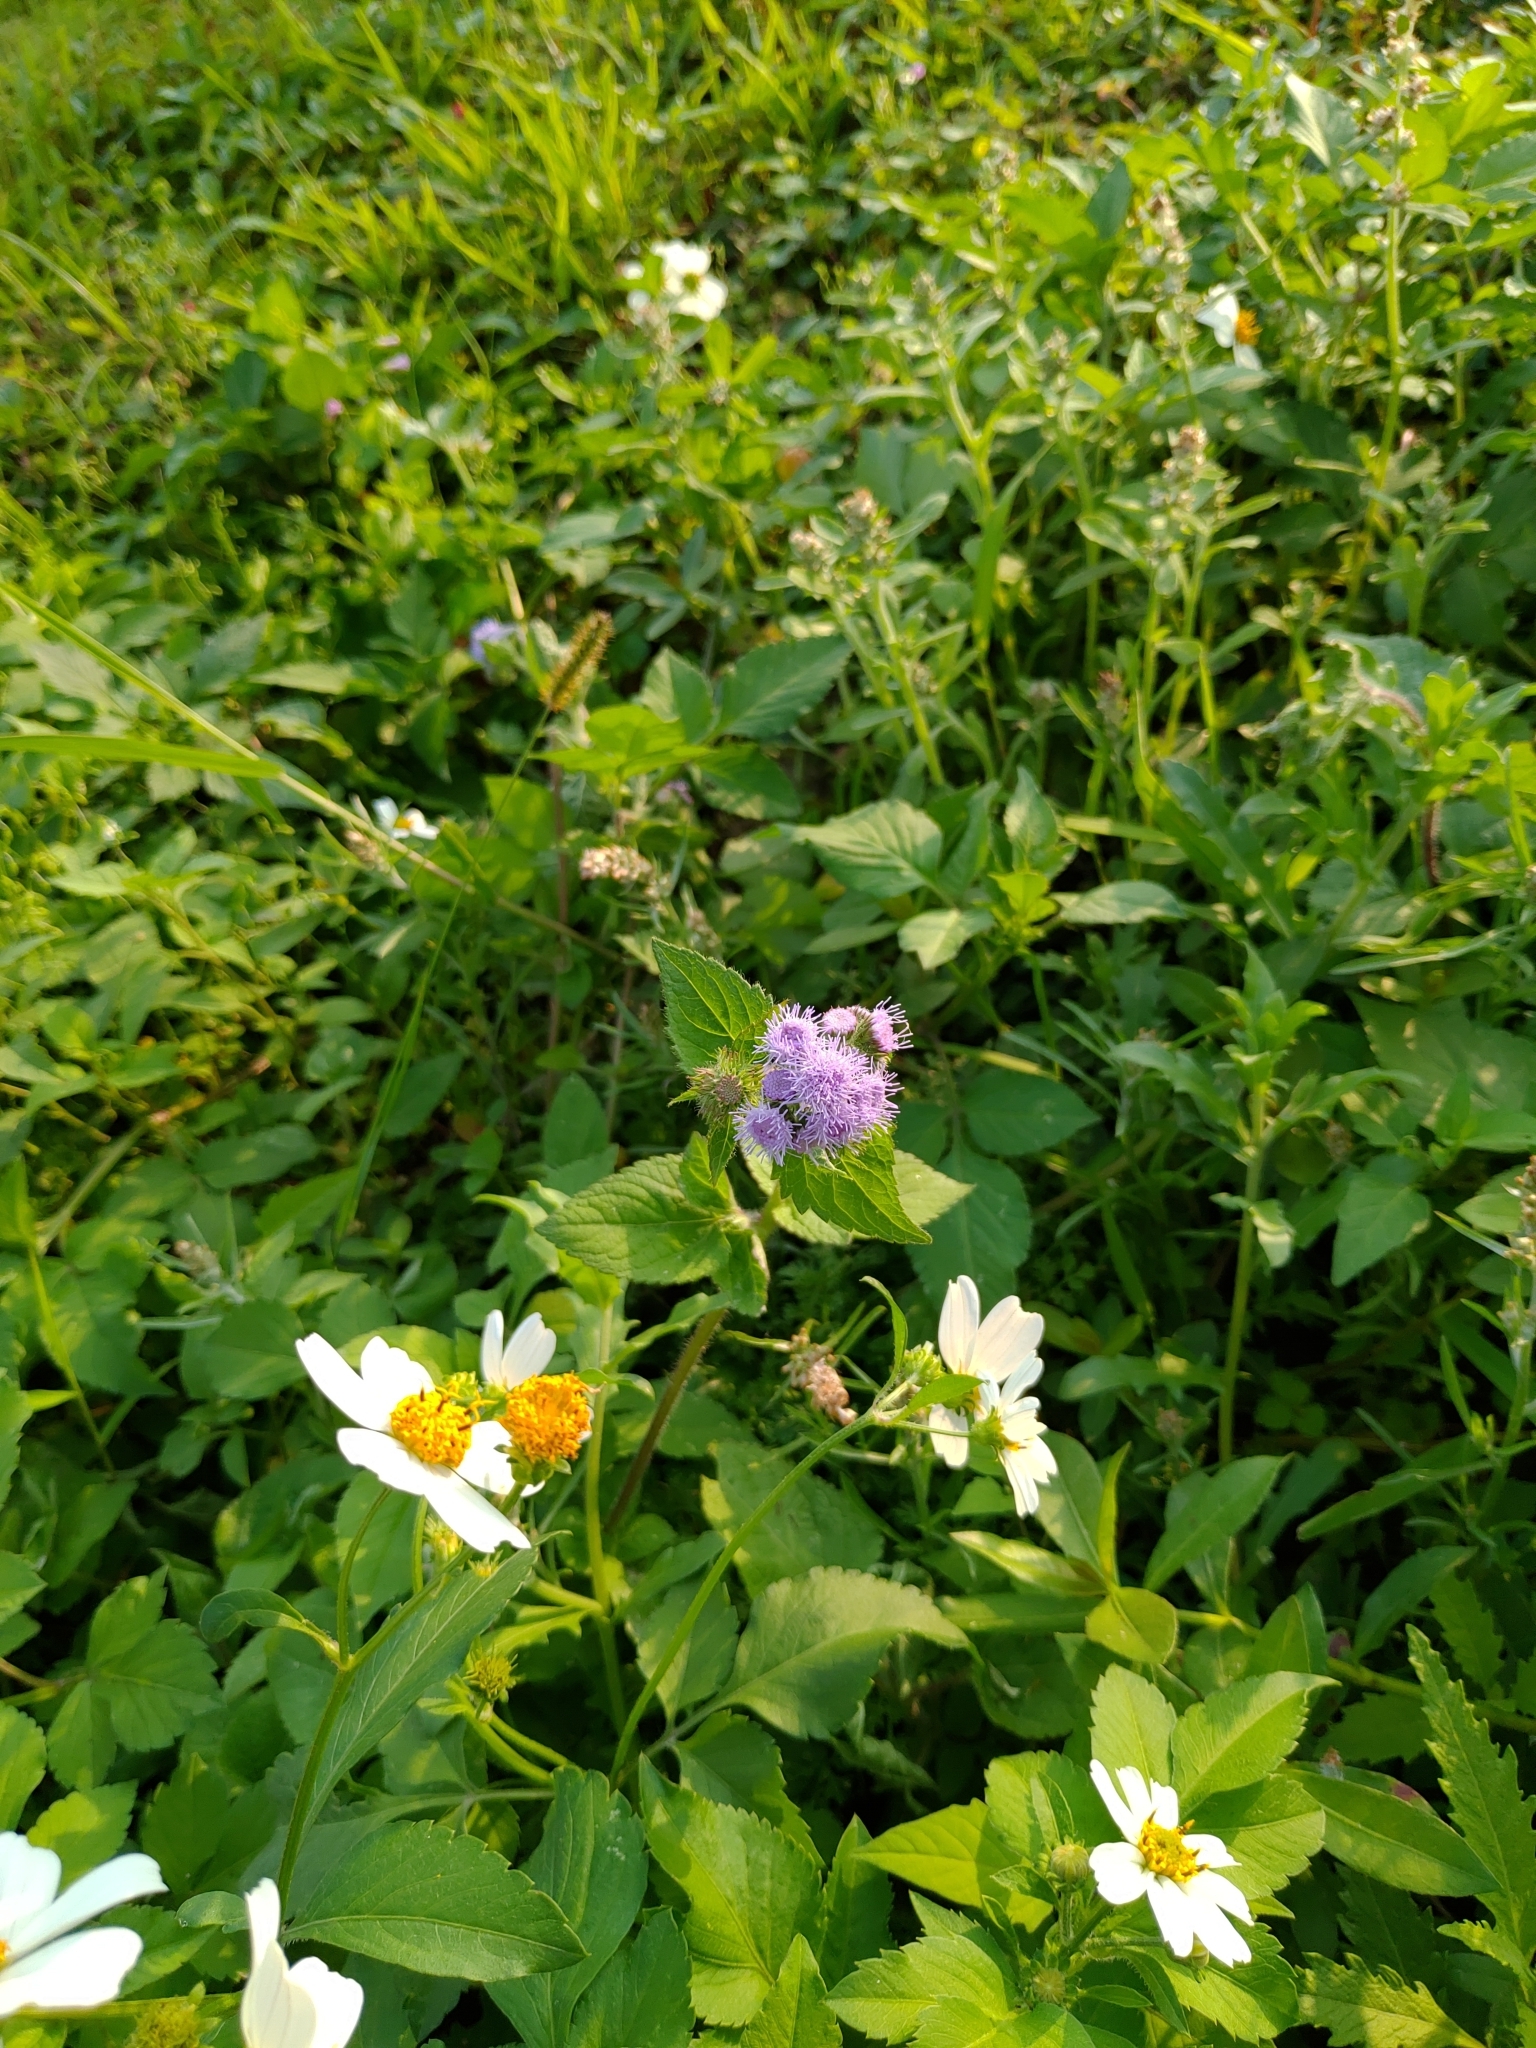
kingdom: Plantae
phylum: Tracheophyta
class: Magnoliopsida
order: Asterales
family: Asteraceae
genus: Ageratum
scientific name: Ageratum houstonianum
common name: Bluemink
